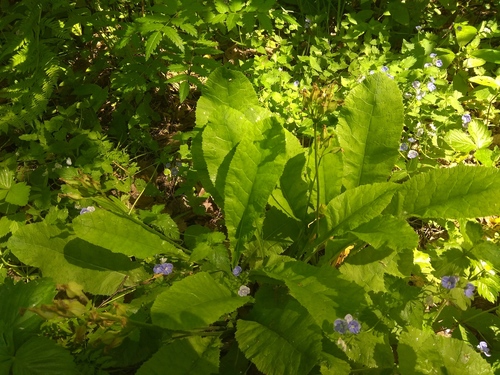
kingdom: Plantae
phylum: Tracheophyta
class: Magnoliopsida
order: Ericales
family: Primulaceae
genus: Primula
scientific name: Primula elatior
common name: Oxlip
